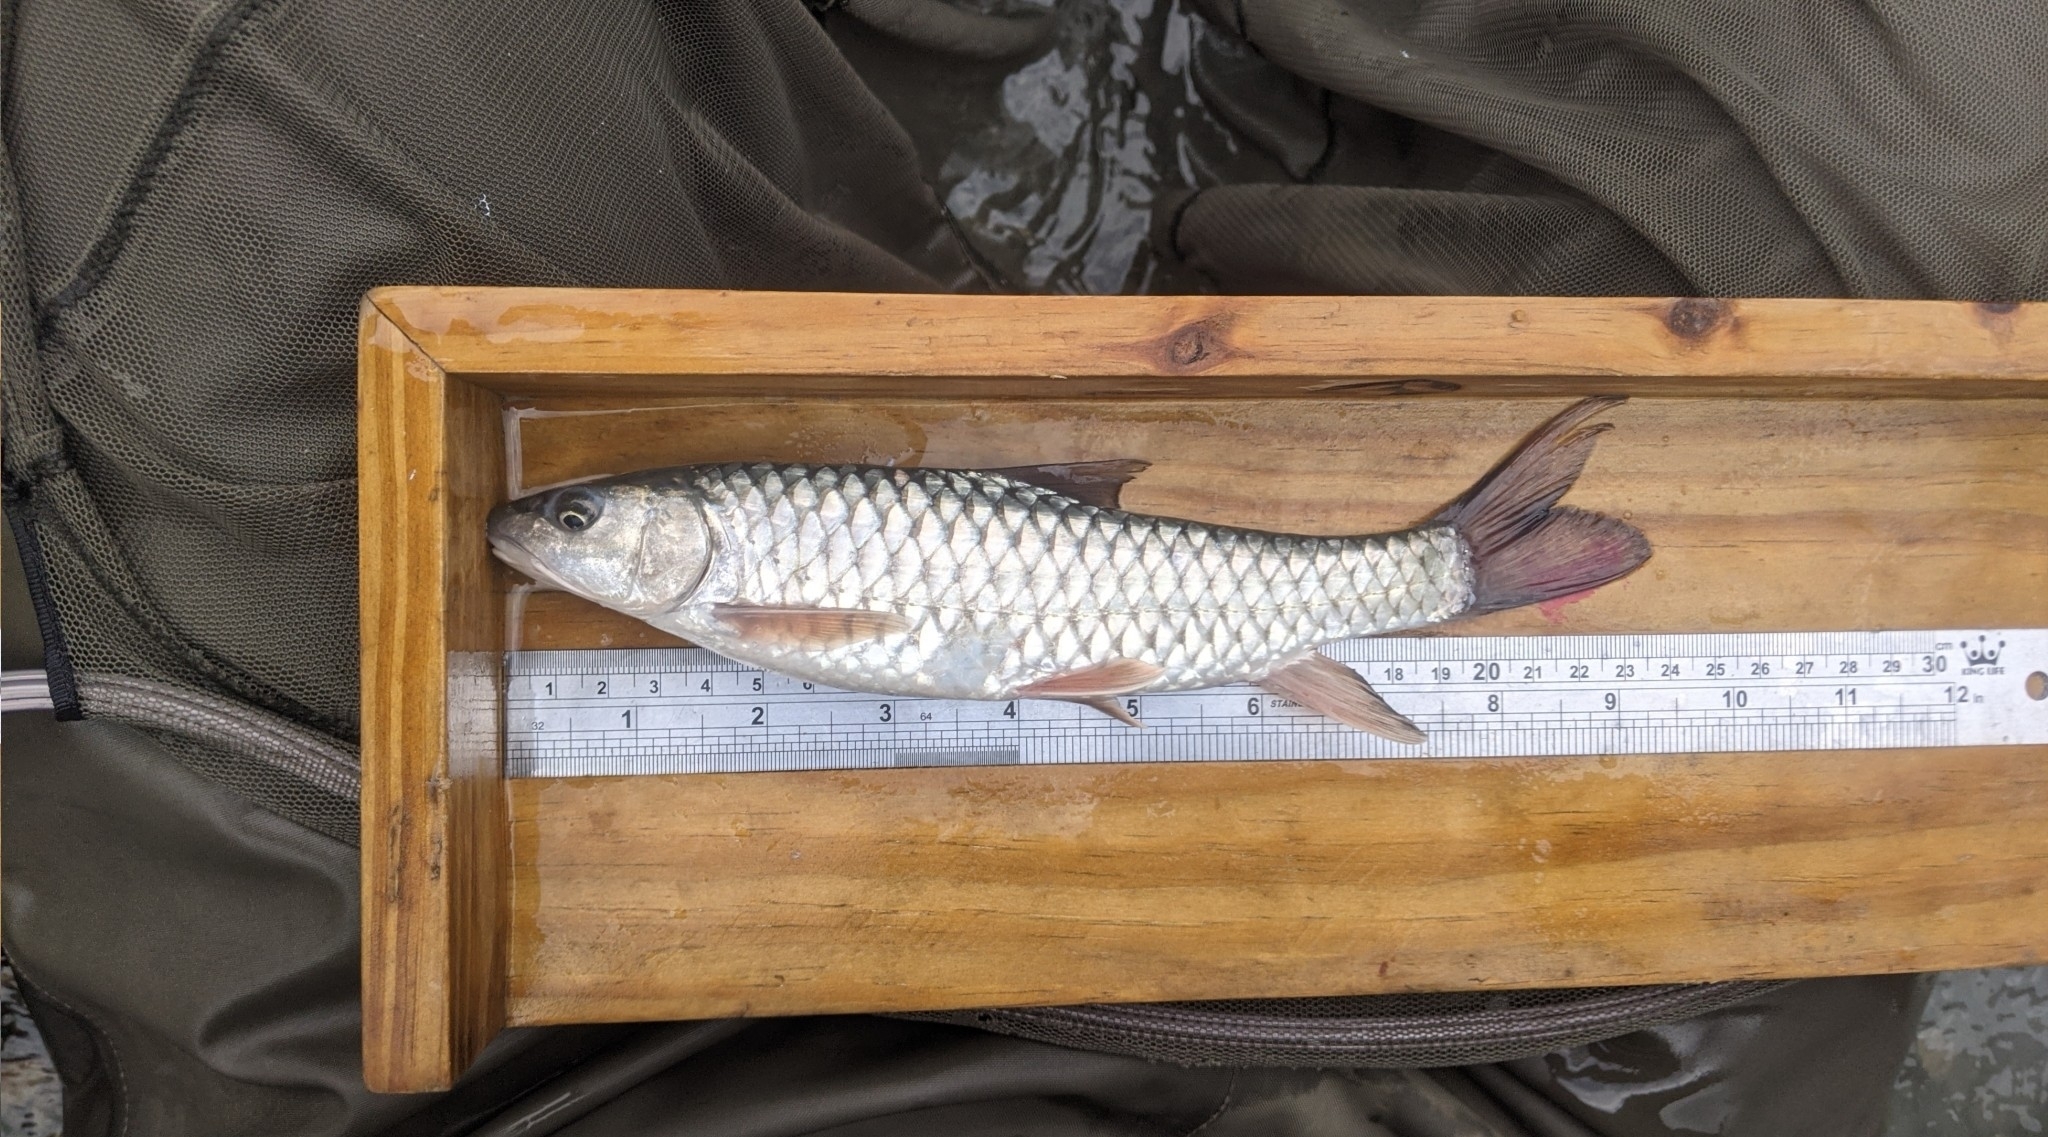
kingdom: Animalia
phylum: Chordata
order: Cypriniformes
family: Cyprinidae
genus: Spinibarbus
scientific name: Spinibarbus hollandi
